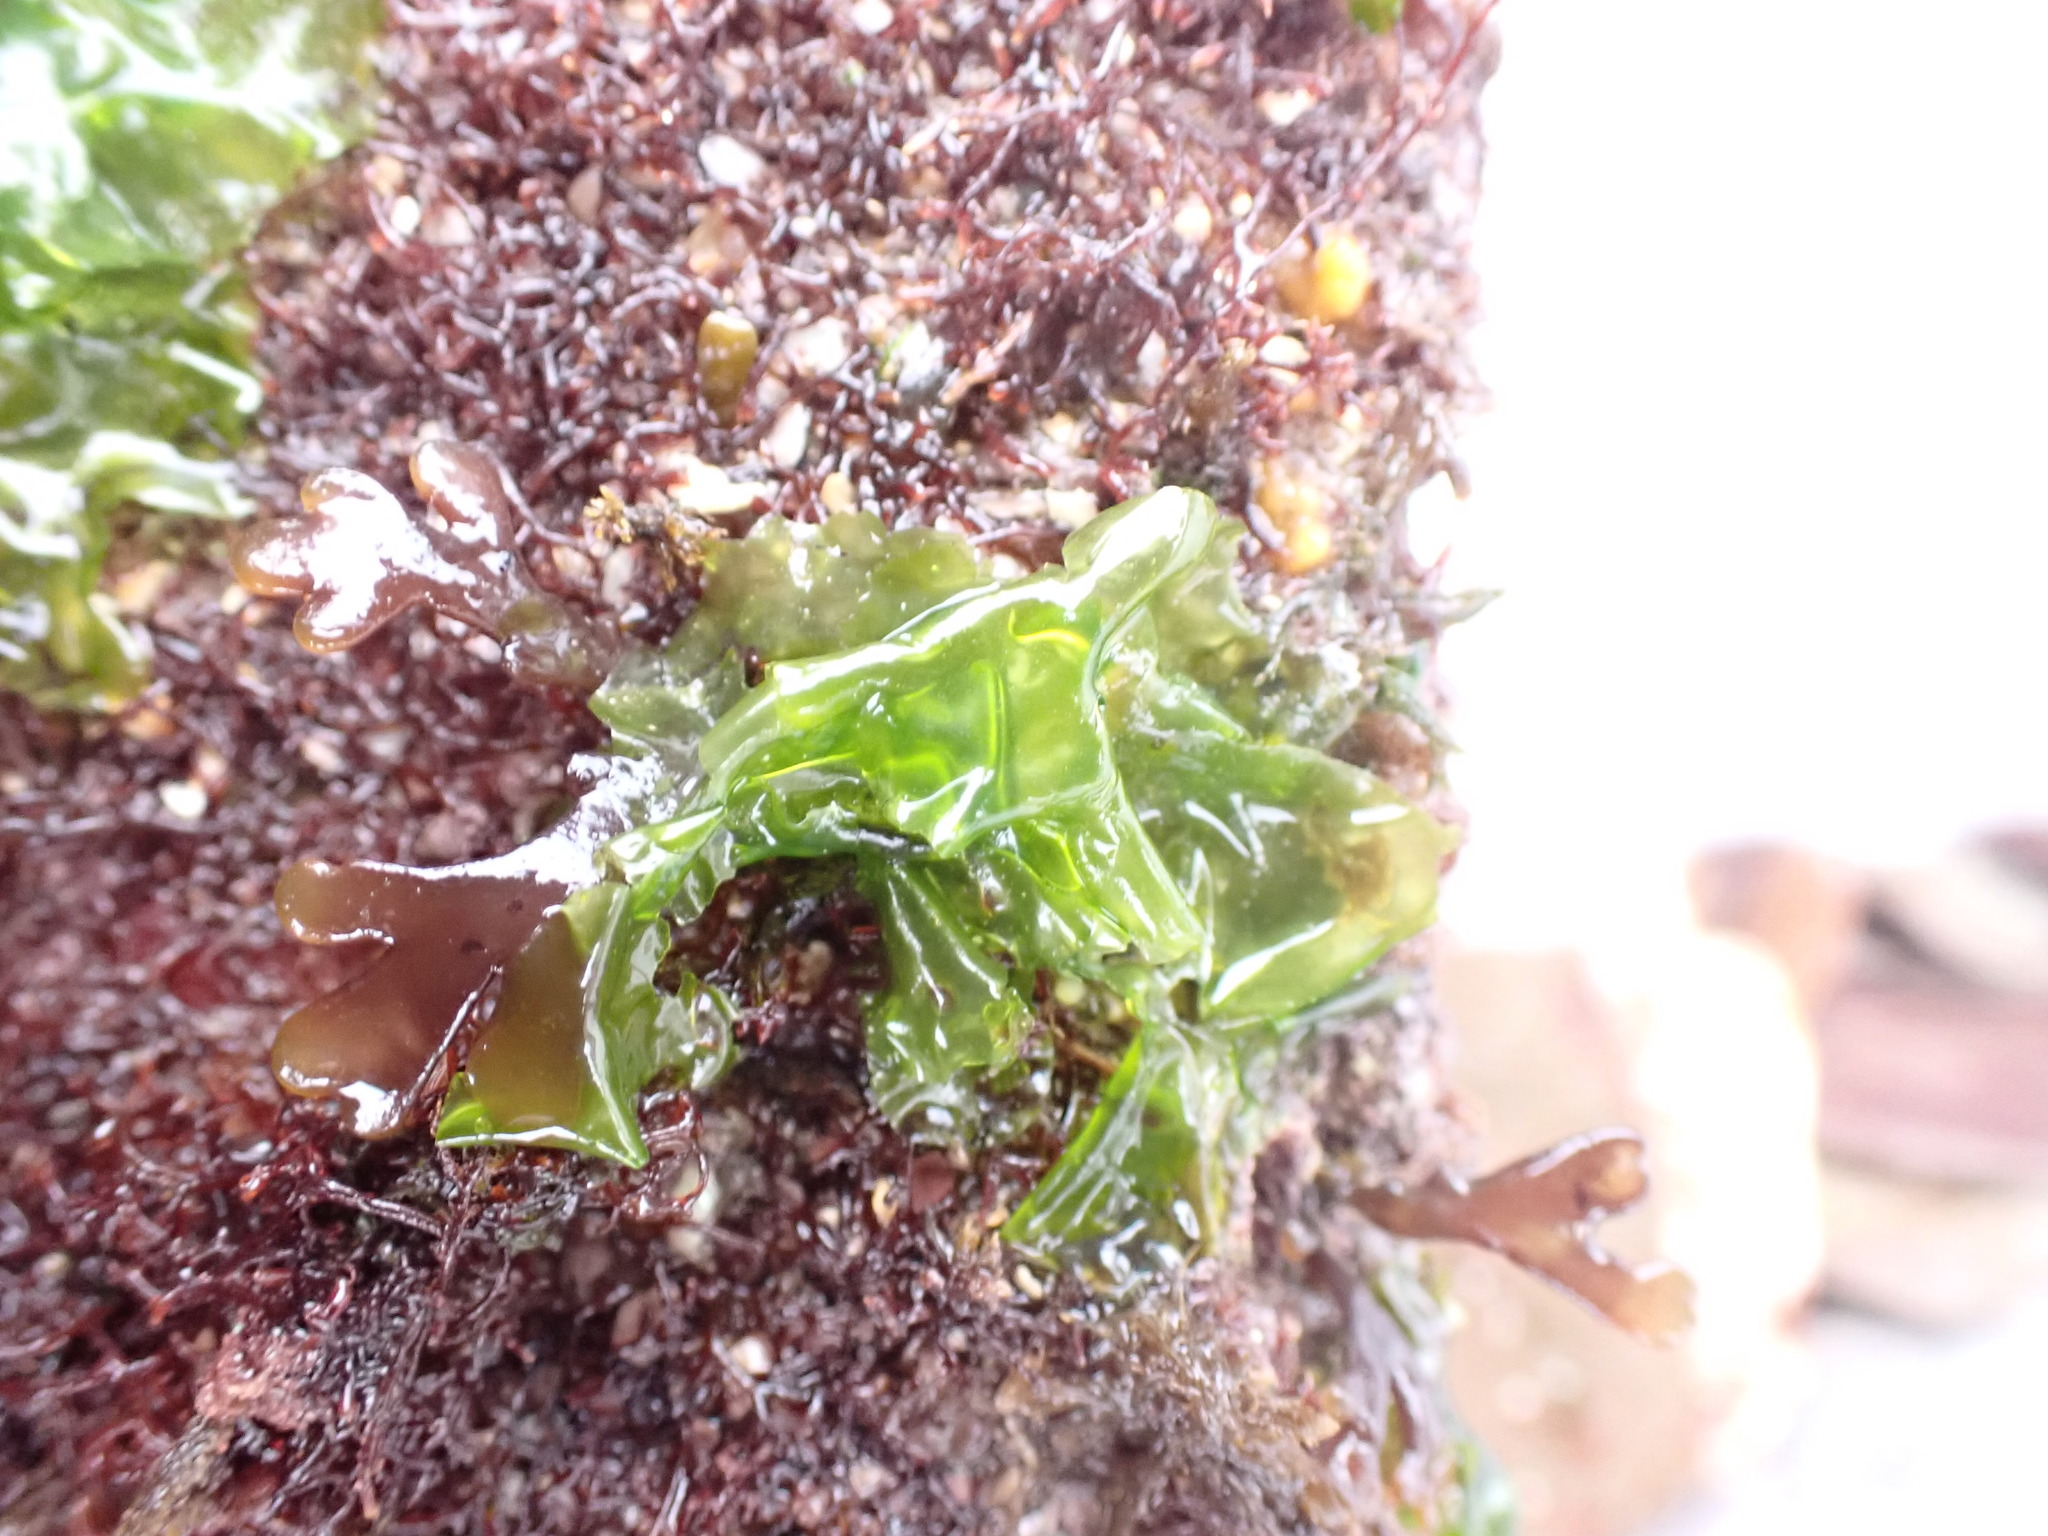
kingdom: Plantae
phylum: Chlorophyta
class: Ulvophyceae
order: Ulvales
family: Ulvaceae
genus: Ulva
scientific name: Ulva lactuca
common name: Sea lettuce
